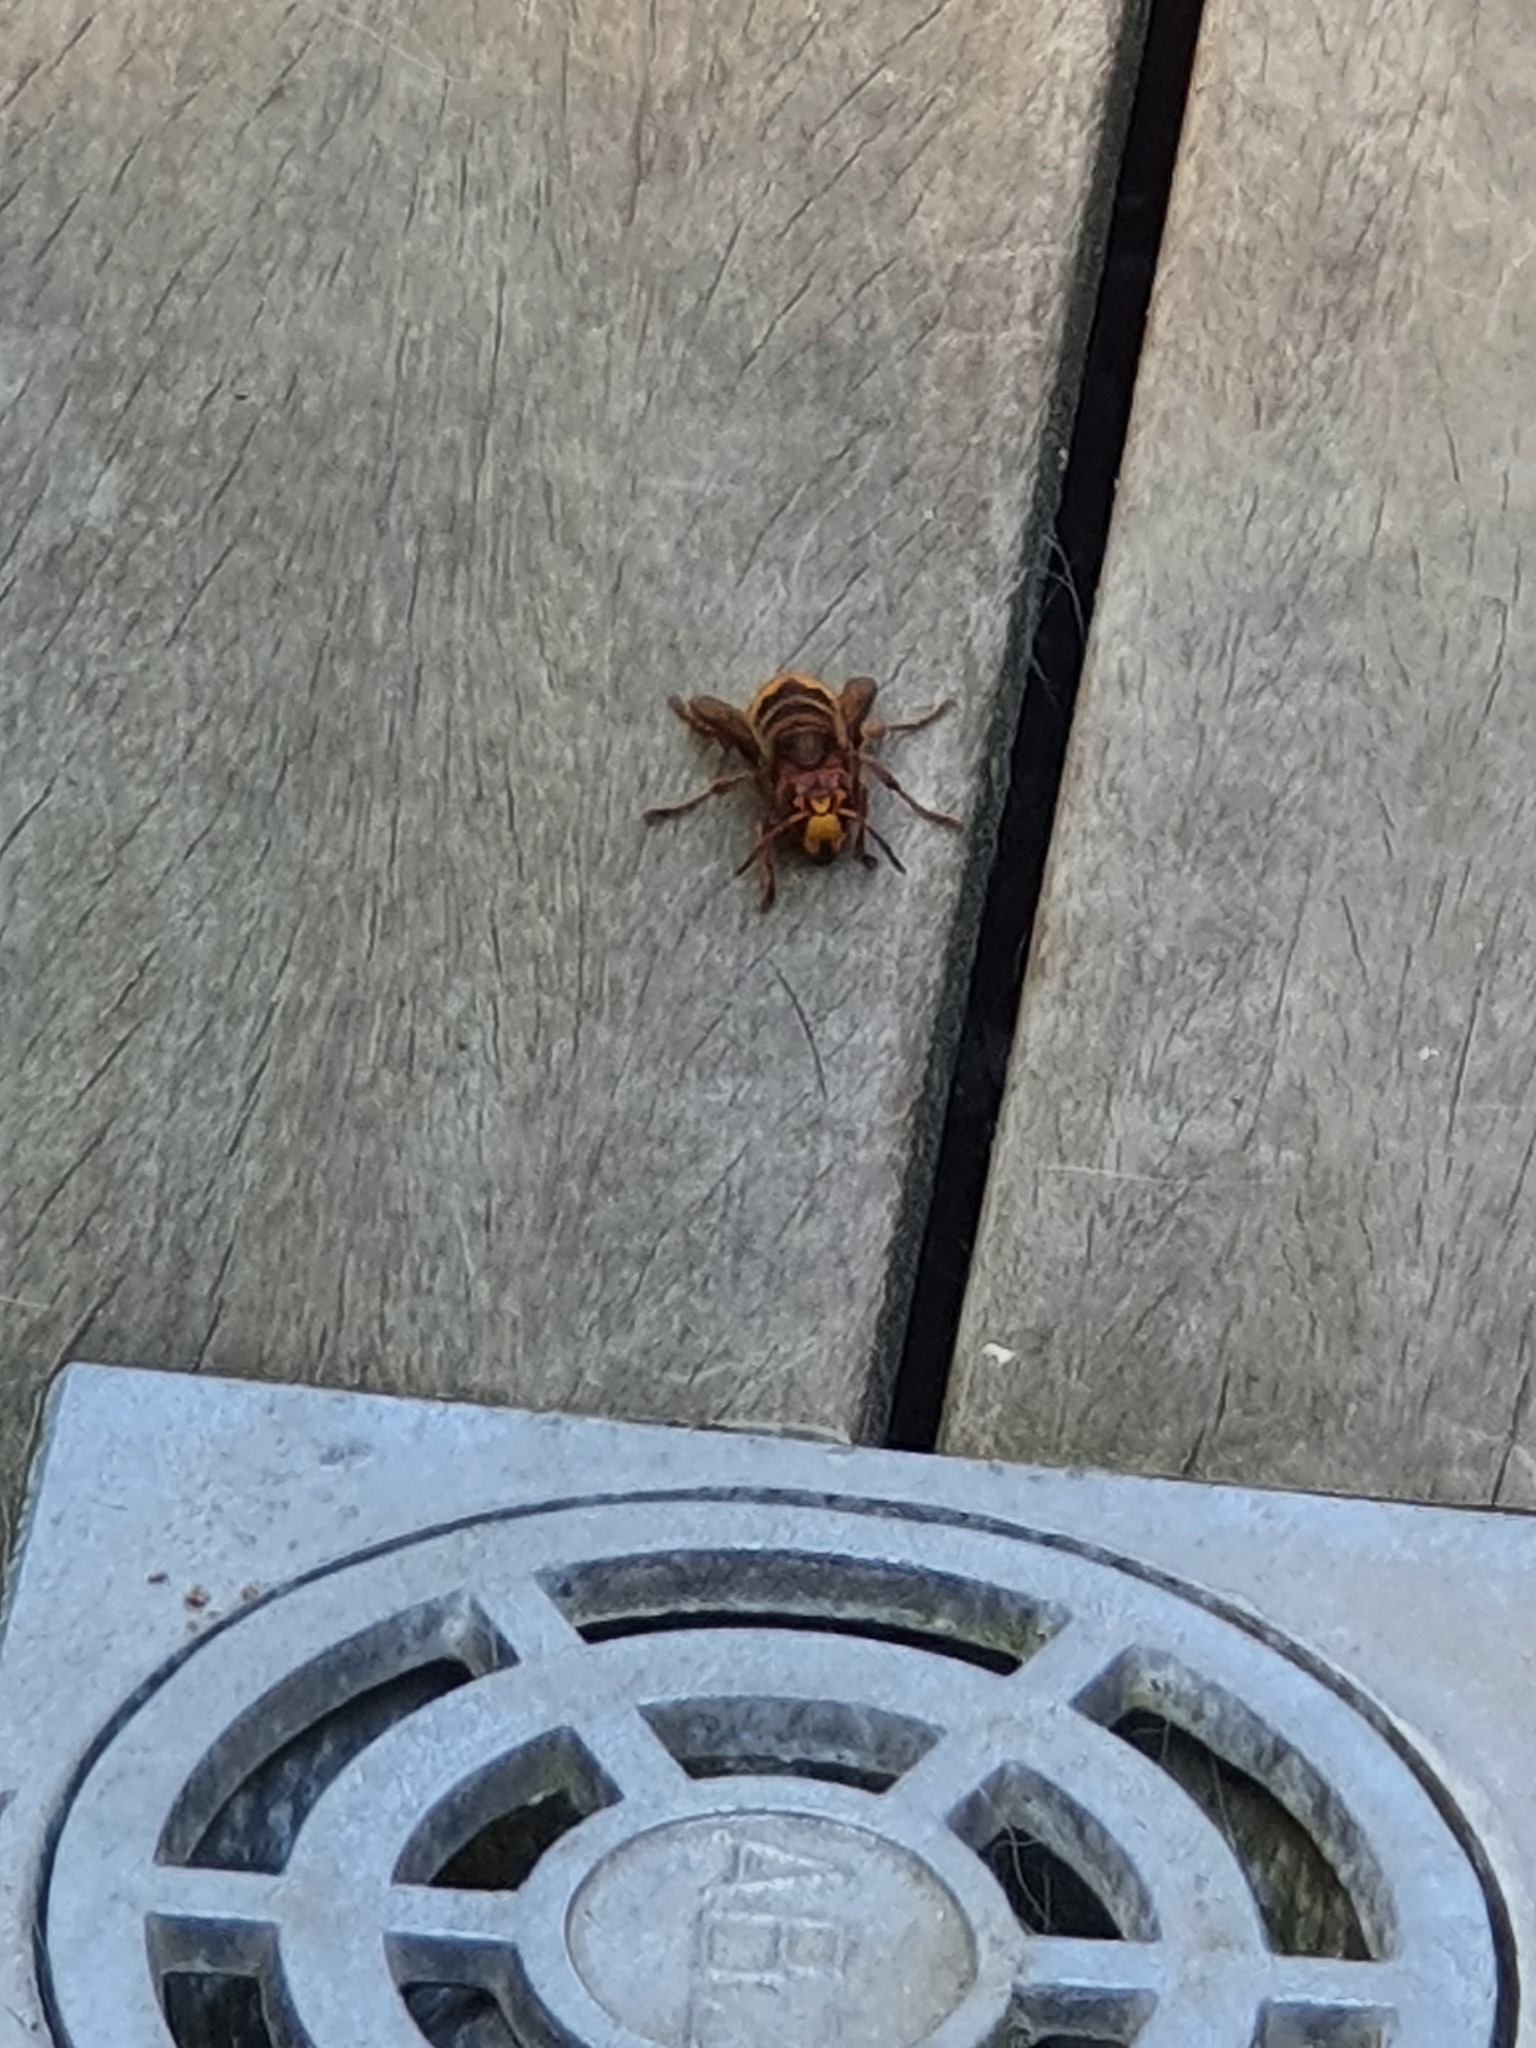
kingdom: Animalia
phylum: Arthropoda
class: Insecta
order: Hymenoptera
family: Vespidae
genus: Vespa
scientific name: Vespa crabro
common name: Hornet
